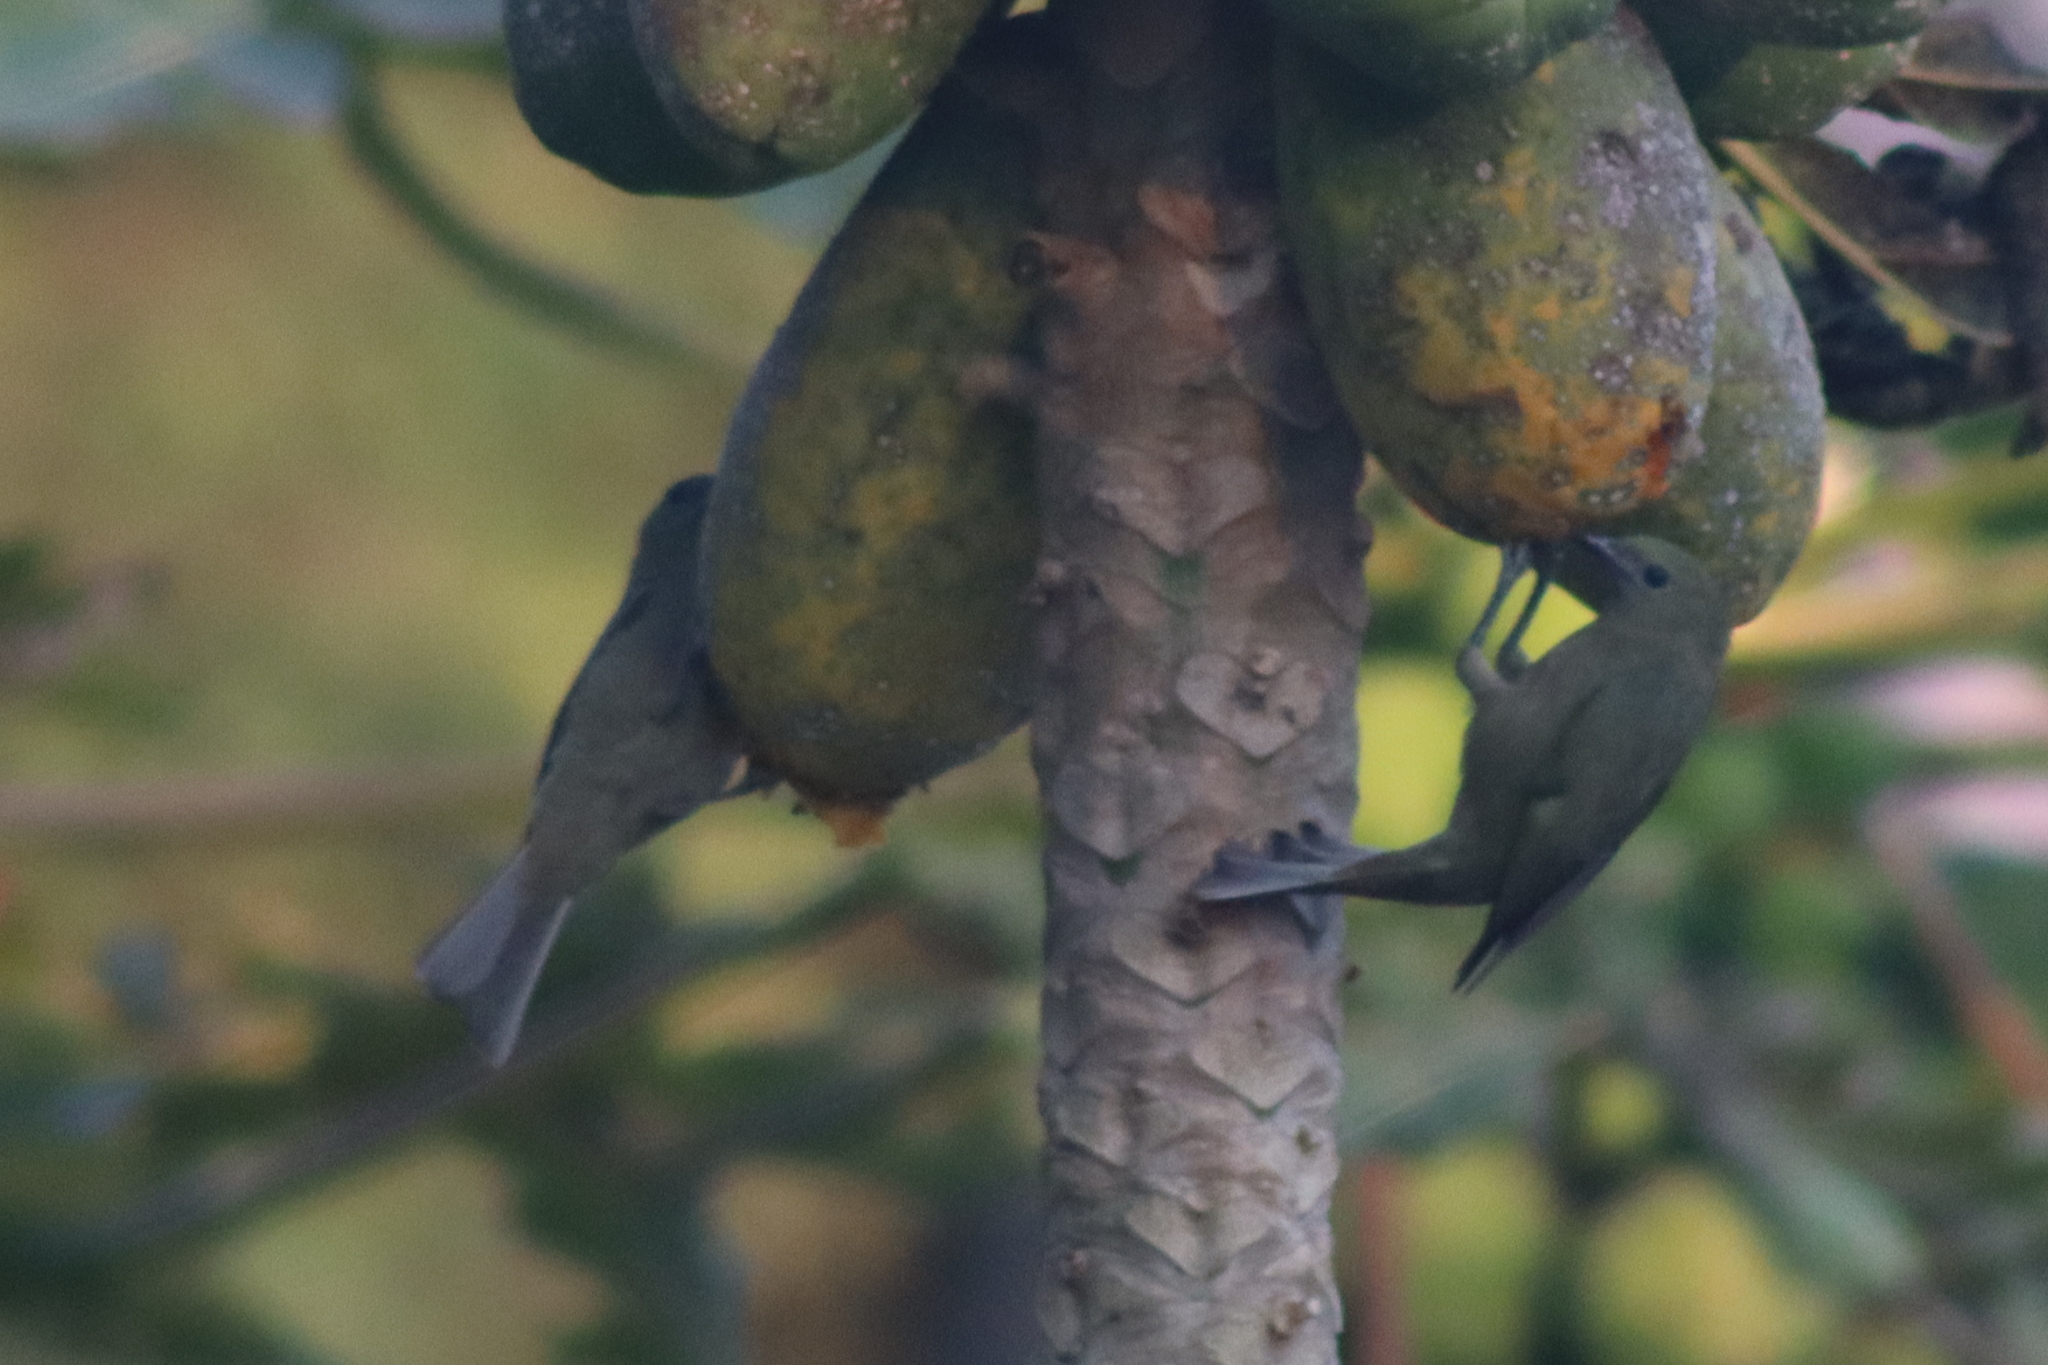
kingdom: Animalia
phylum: Chordata
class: Aves
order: Passeriformes
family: Thraupidae
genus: Thraupis
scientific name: Thraupis palmarum
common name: Palm tanager
